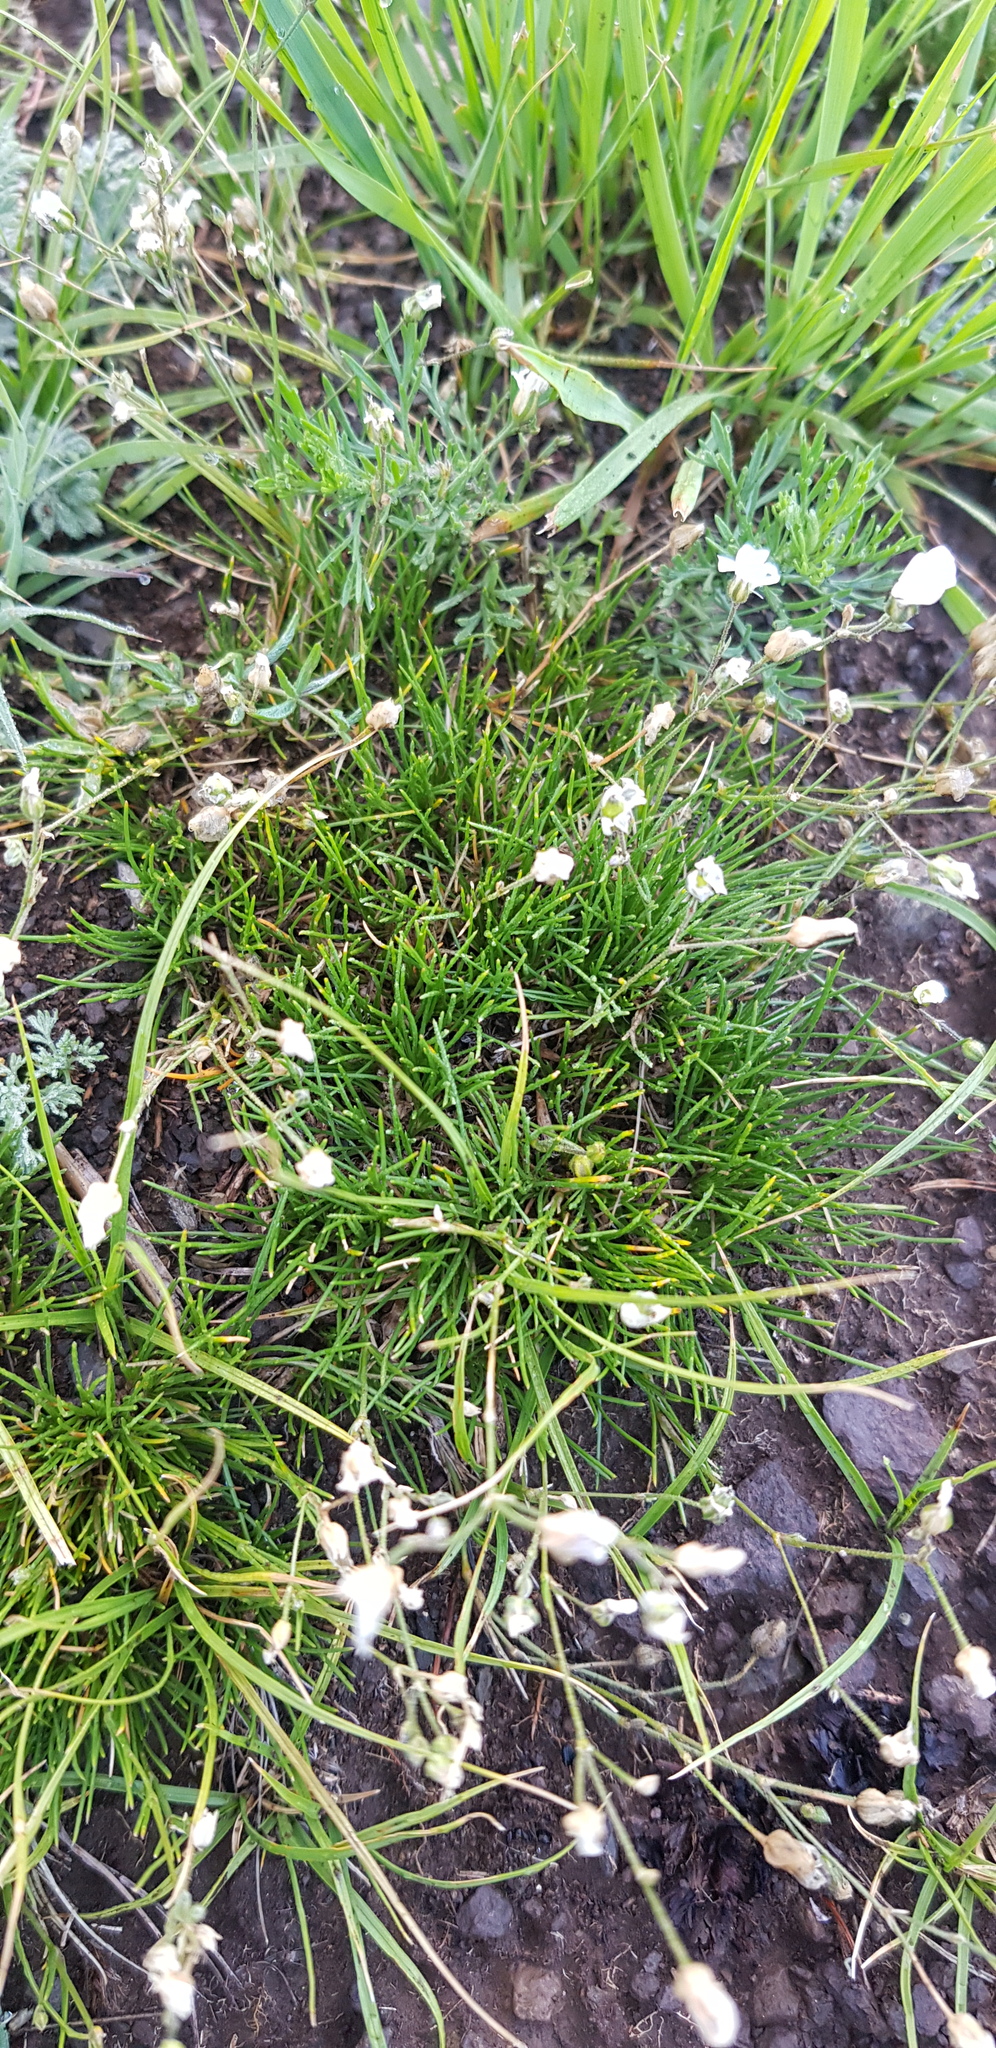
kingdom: Plantae
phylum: Tracheophyta
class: Magnoliopsida
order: Caryophyllales
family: Caryophyllaceae
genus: Eremogone
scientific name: Eremogone capillaris
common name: Slender mountain sandwort
